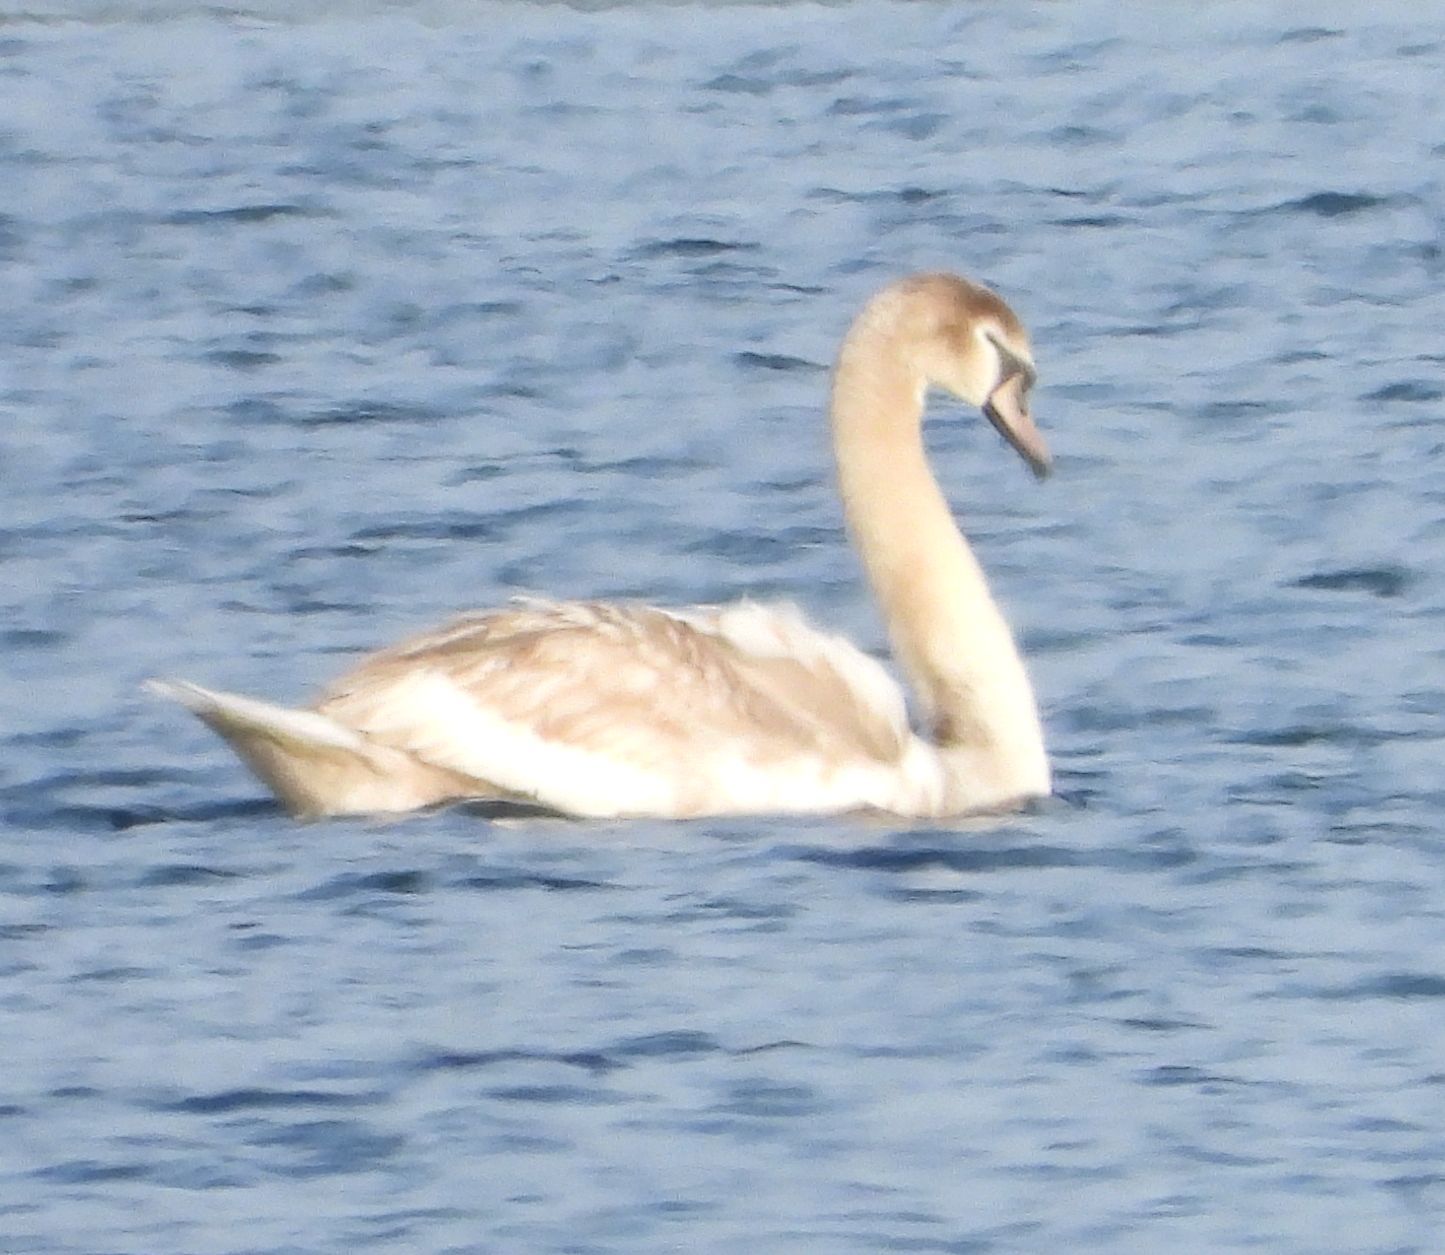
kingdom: Animalia
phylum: Chordata
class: Aves
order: Anseriformes
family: Anatidae
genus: Cygnus
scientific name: Cygnus olor
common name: Mute swan
